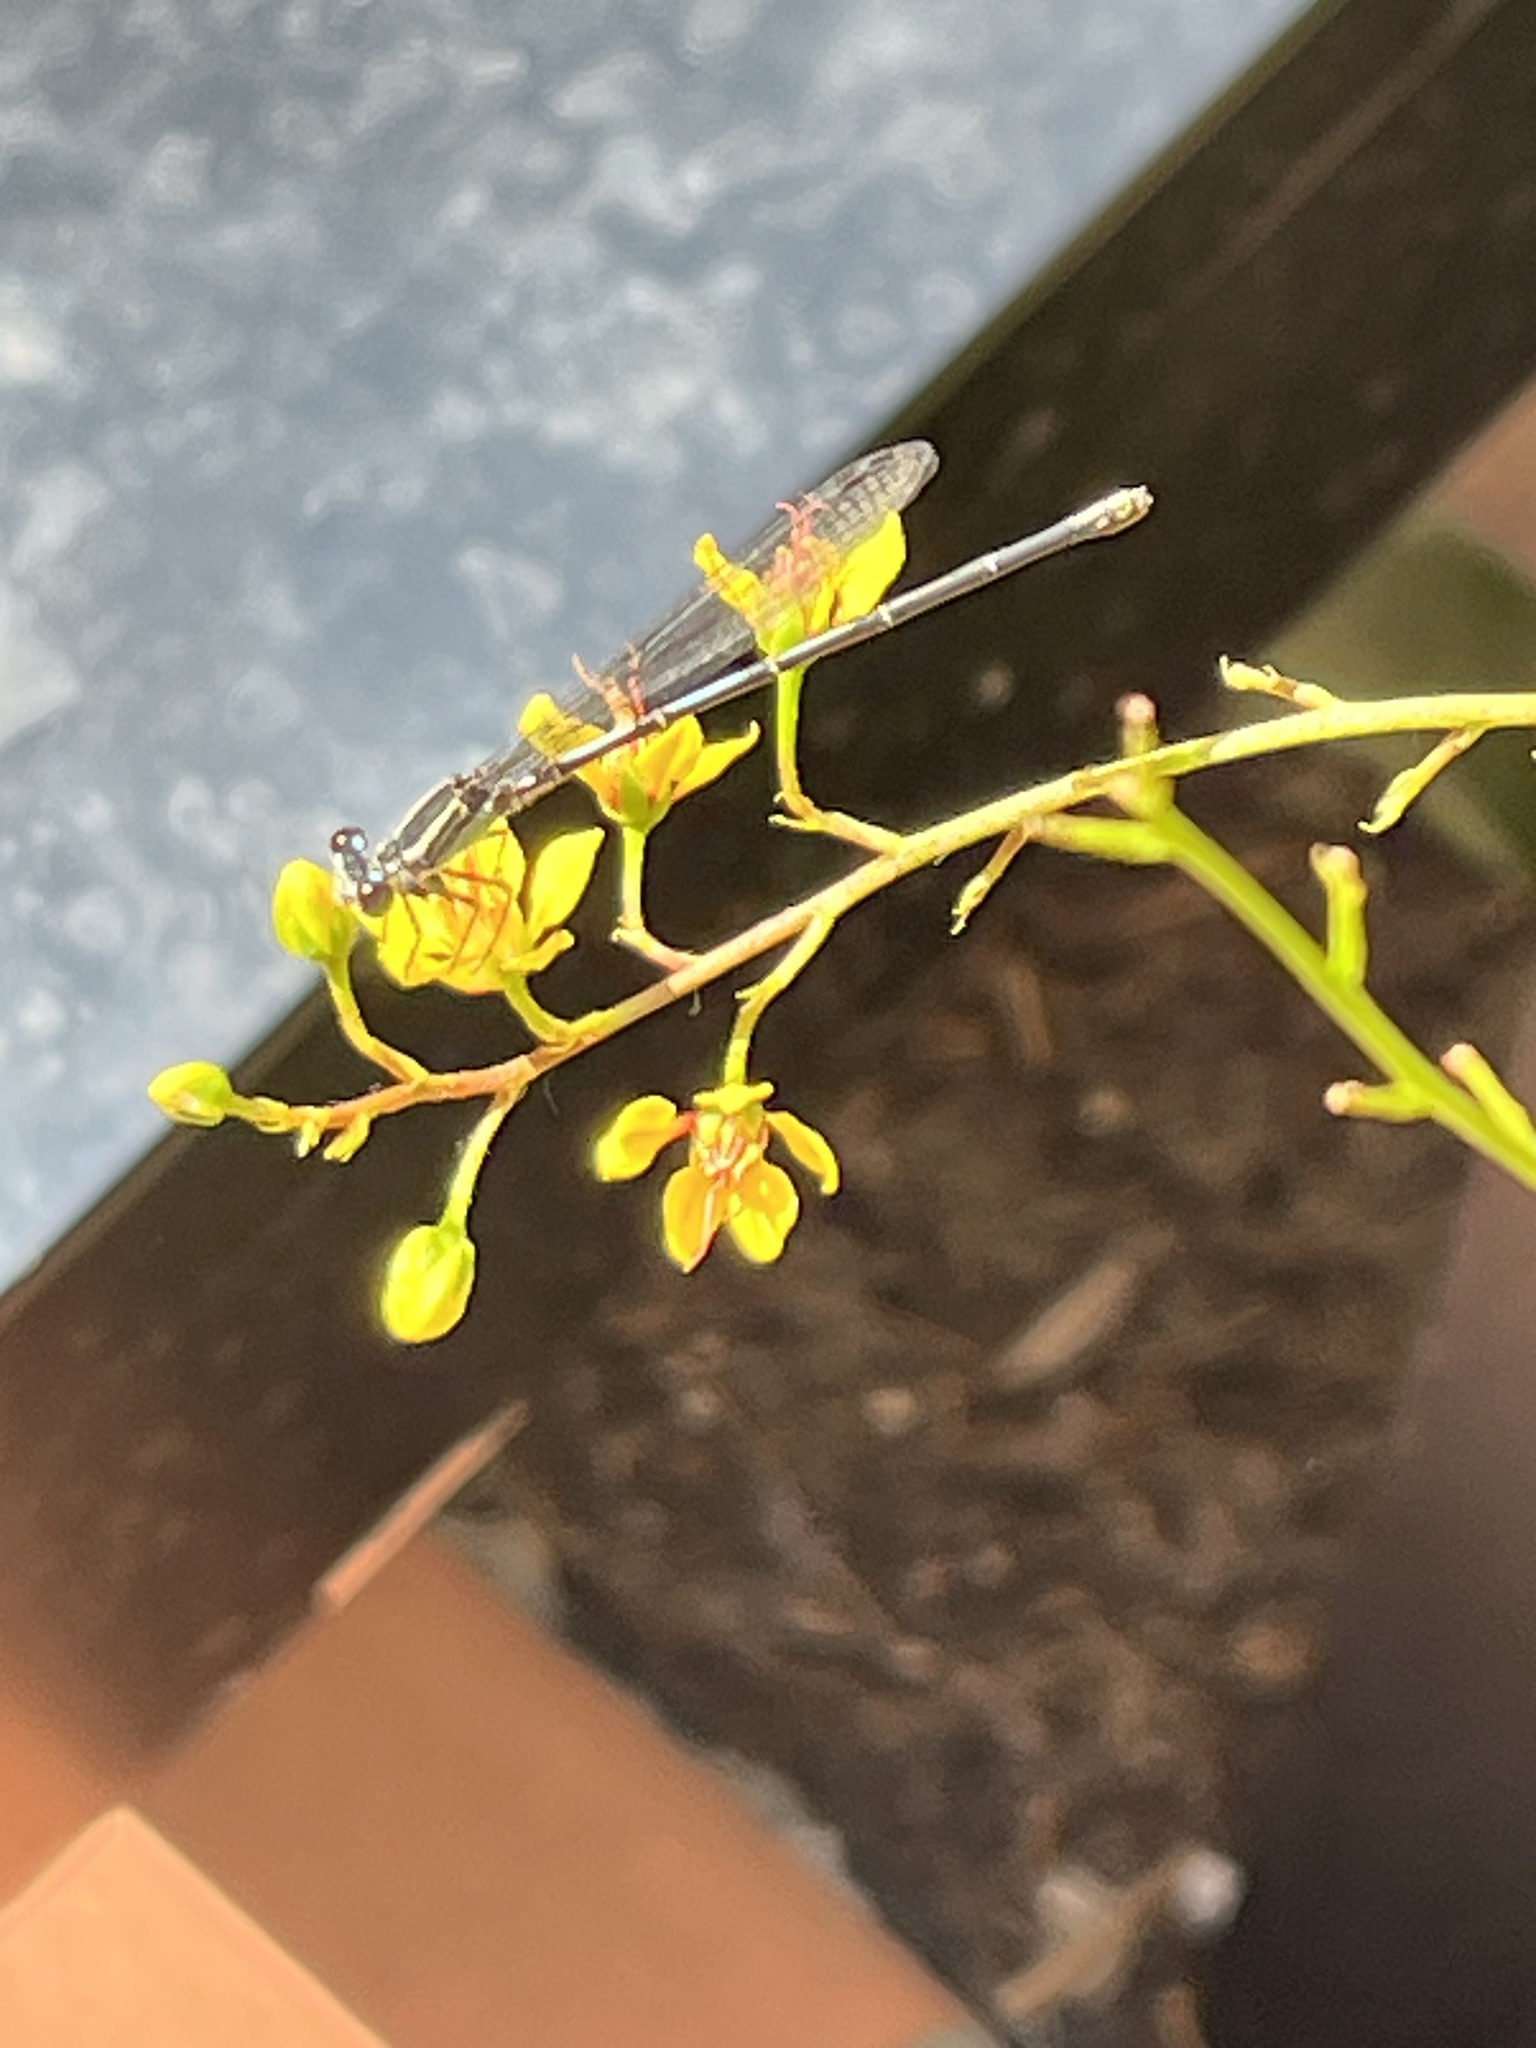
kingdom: Animalia
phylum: Arthropoda
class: Insecta
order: Odonata
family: Coenagrionidae
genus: Argia
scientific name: Argia translata
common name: Dusky dancer
